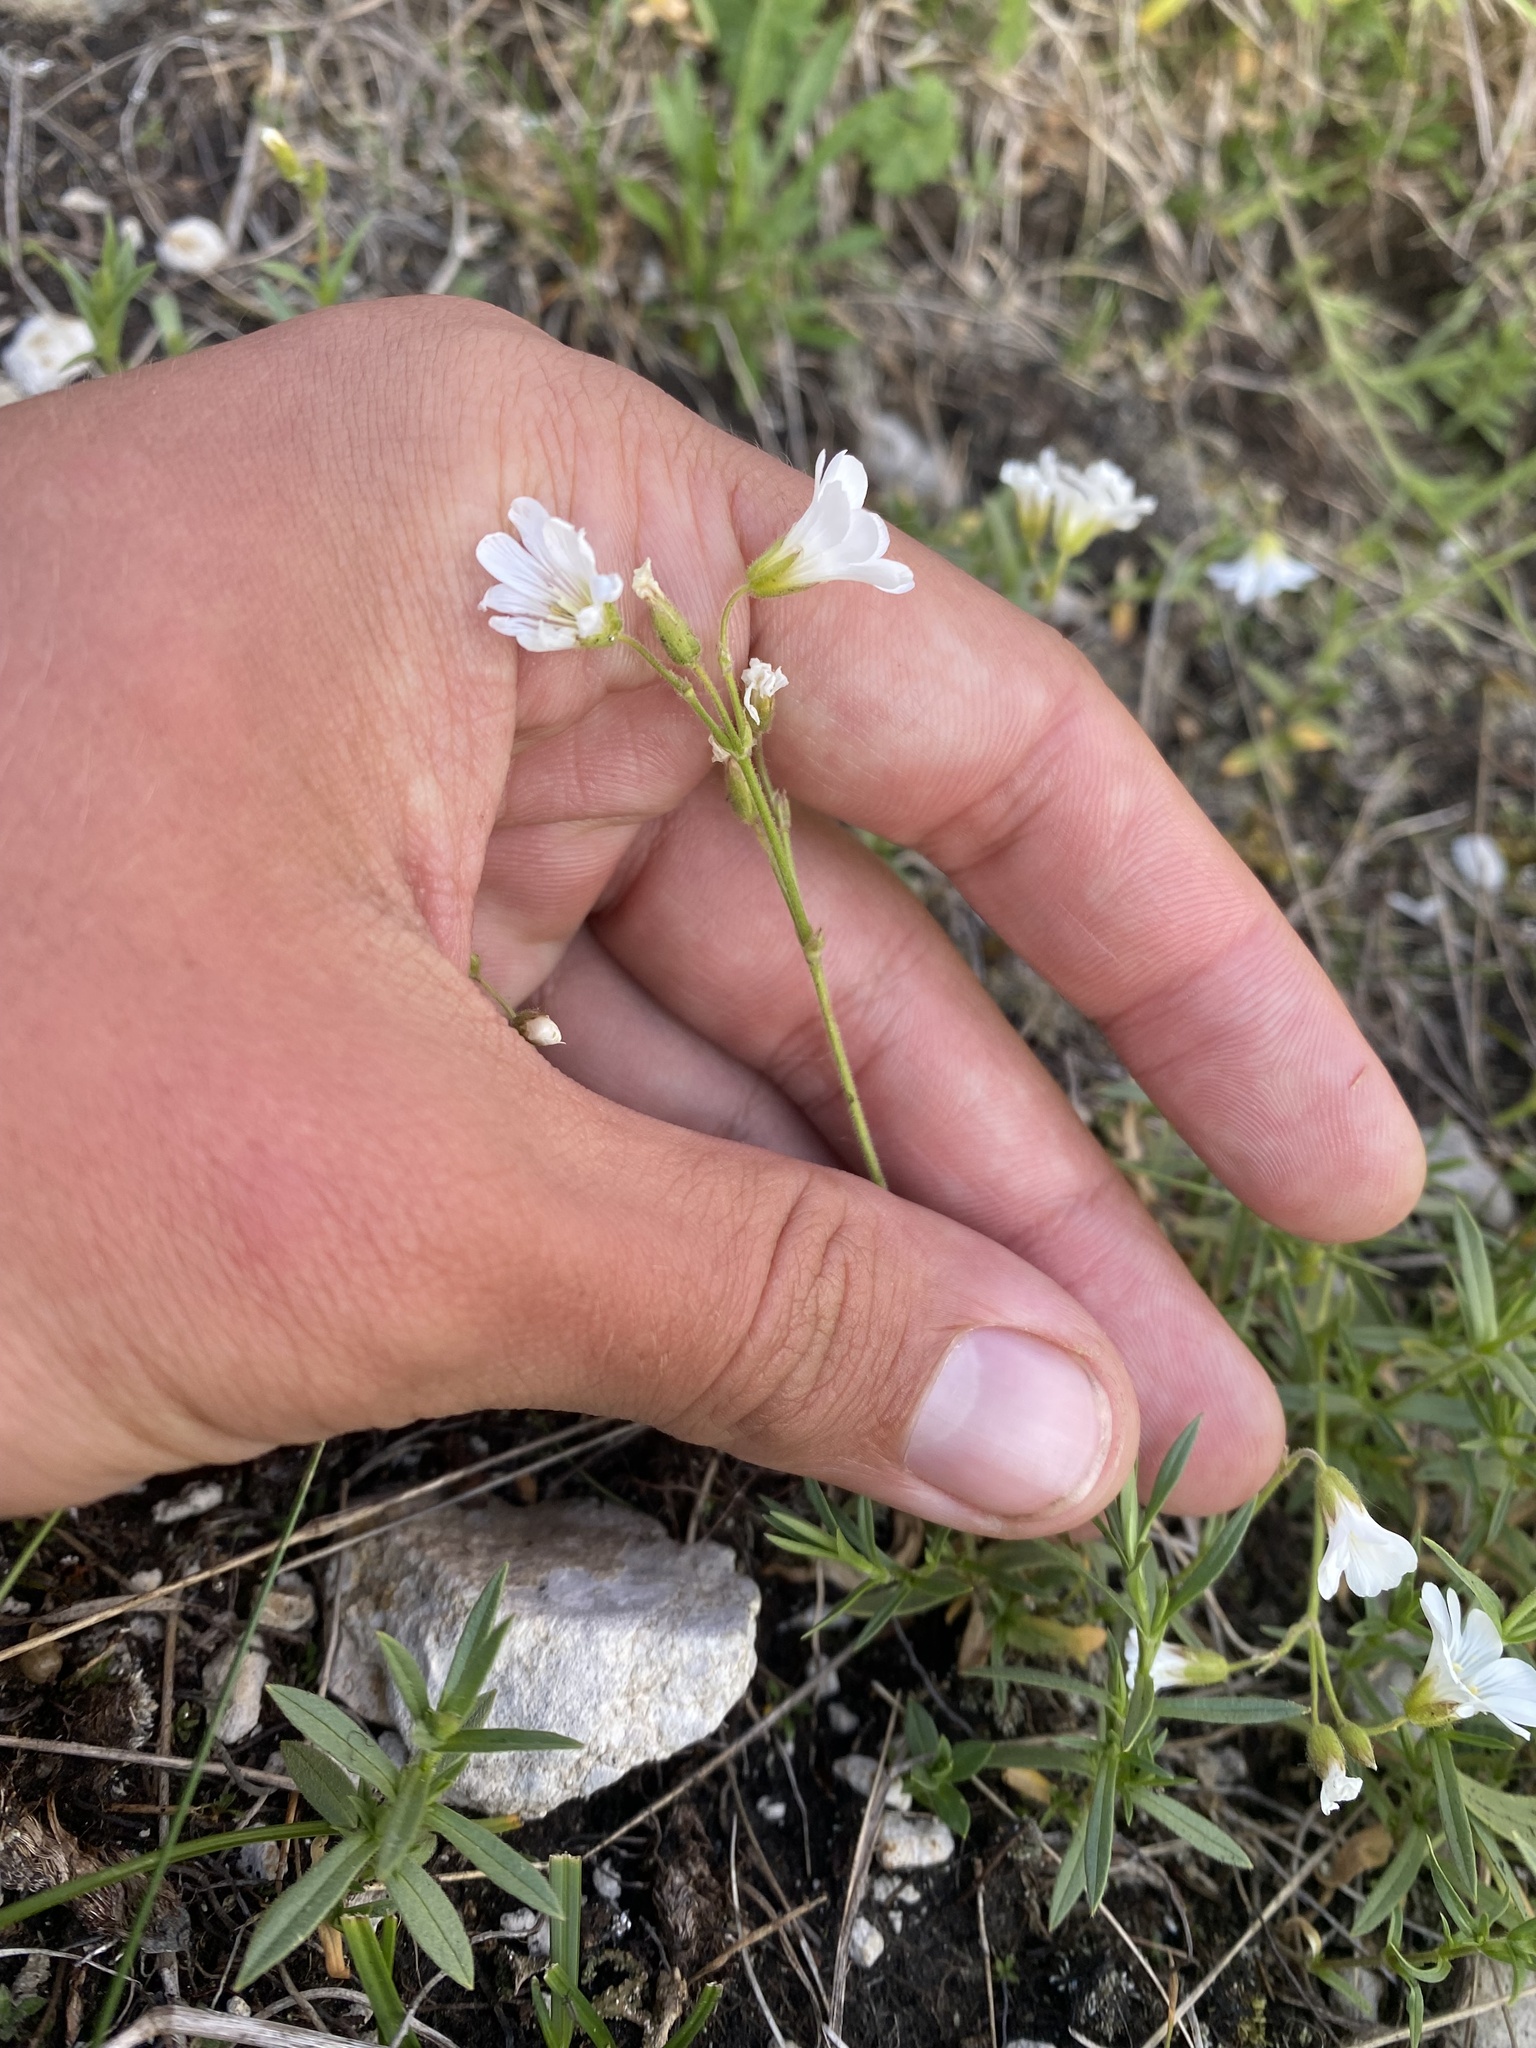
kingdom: Plantae
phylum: Tracheophyta
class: Magnoliopsida
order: Caryophyllales
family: Caryophyllaceae
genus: Cerastium
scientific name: Cerastium arvense
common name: Field mouse-ear
